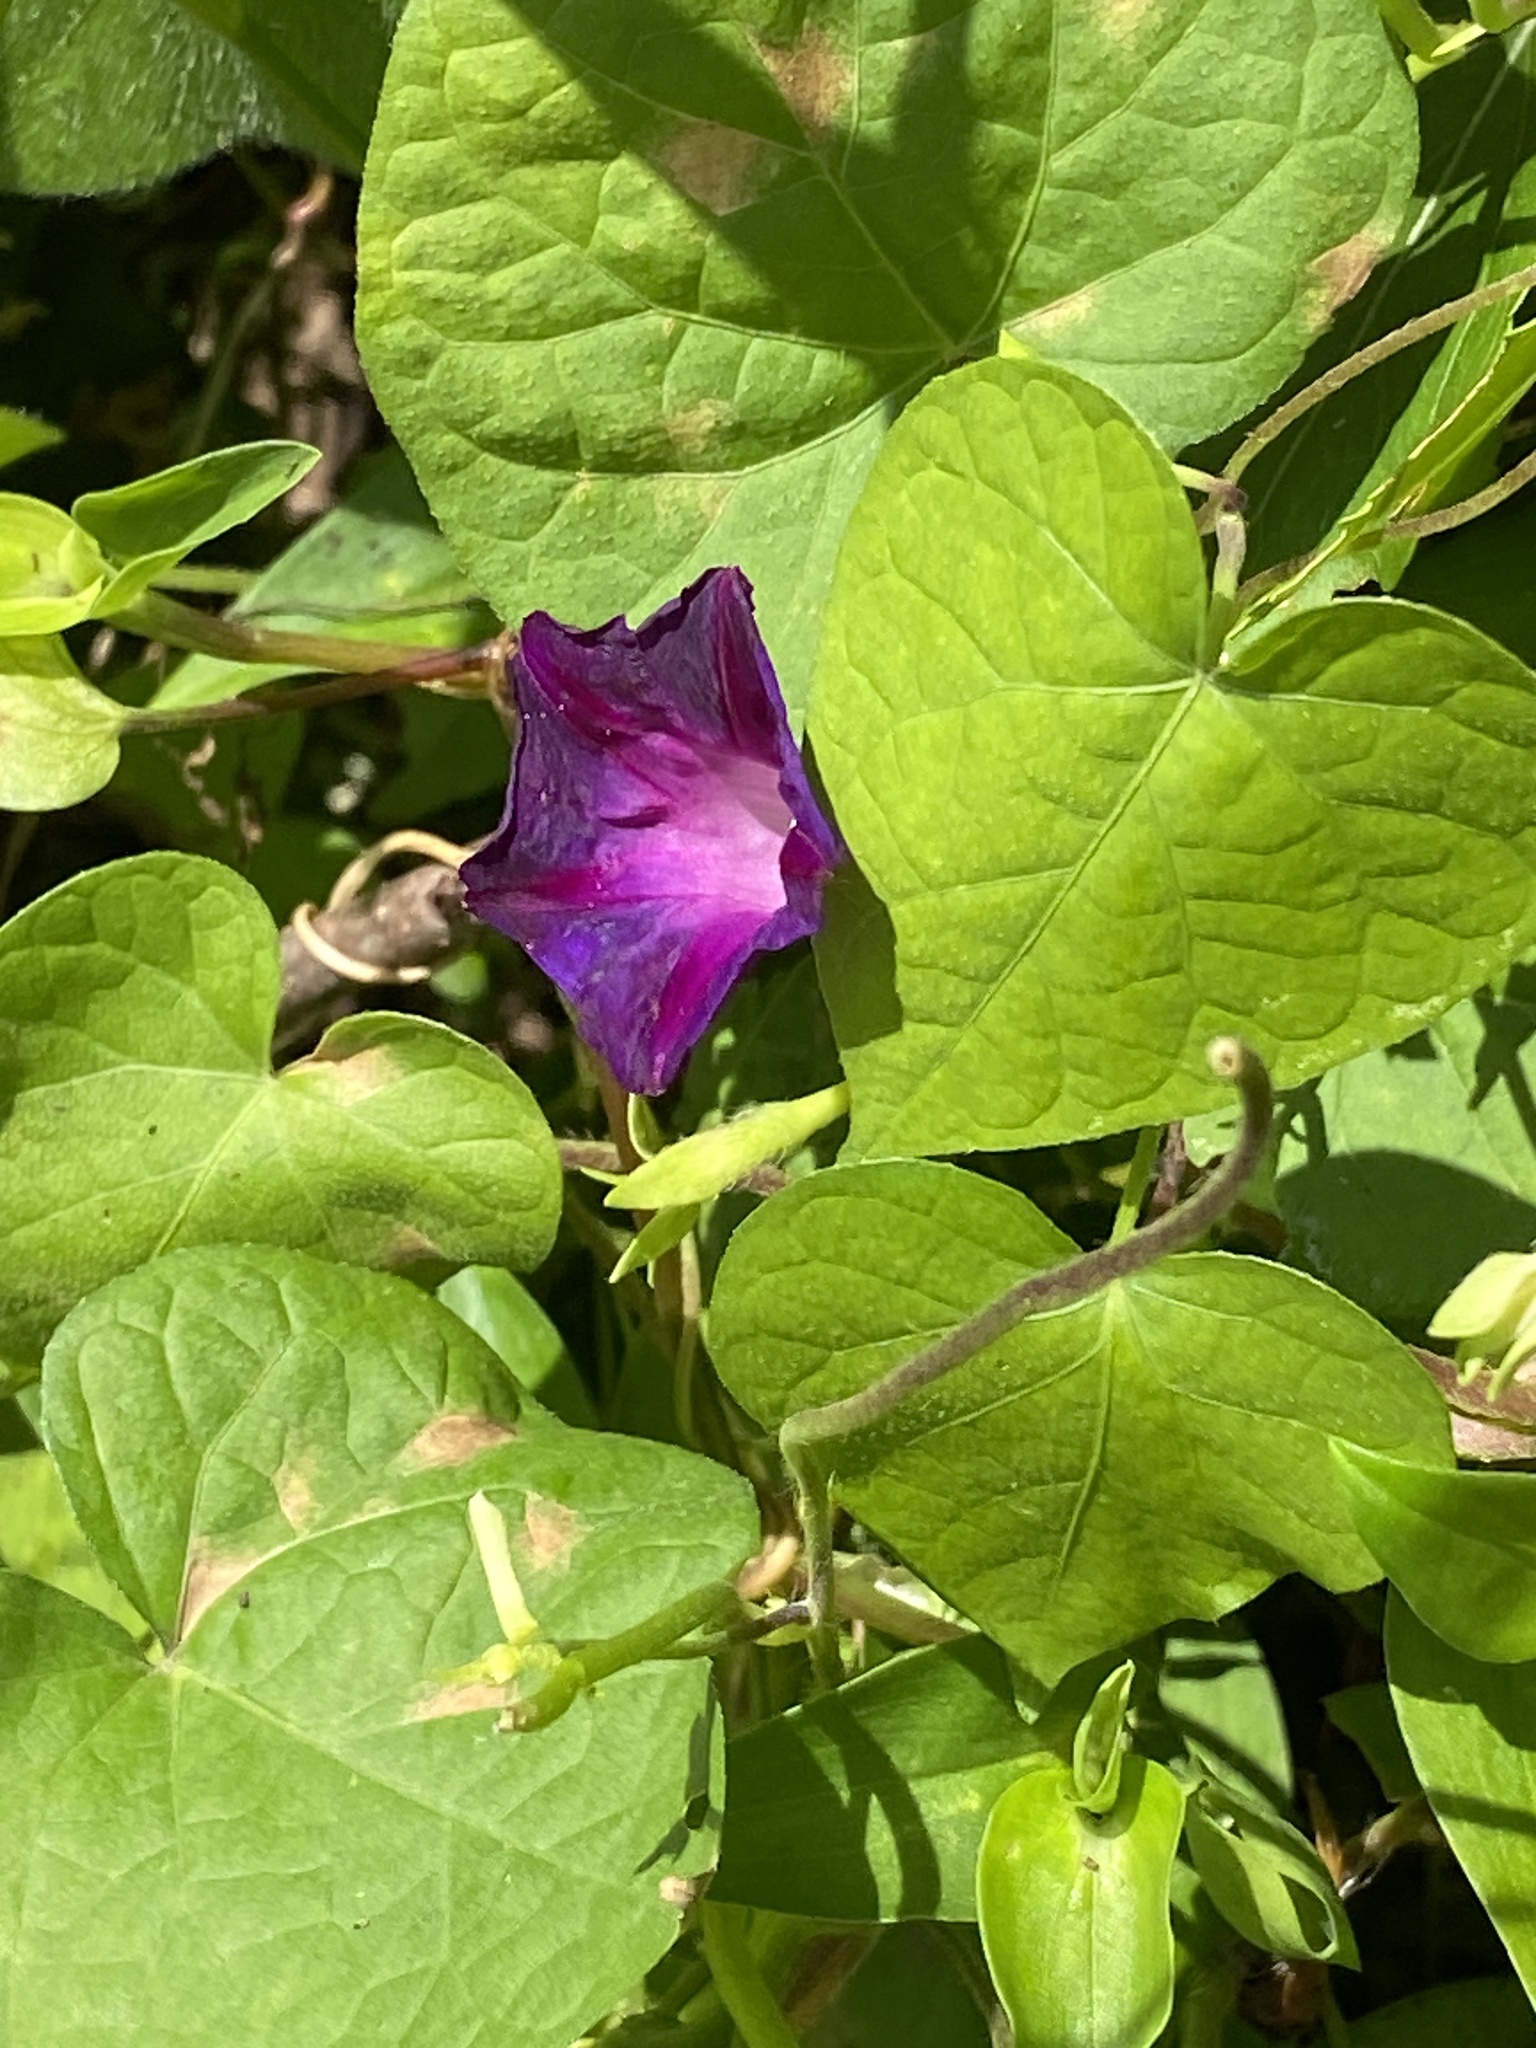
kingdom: Plantae
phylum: Tracheophyta
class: Magnoliopsida
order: Solanales
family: Convolvulaceae
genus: Ipomoea
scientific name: Ipomoea purpurea
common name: Common morning-glory
